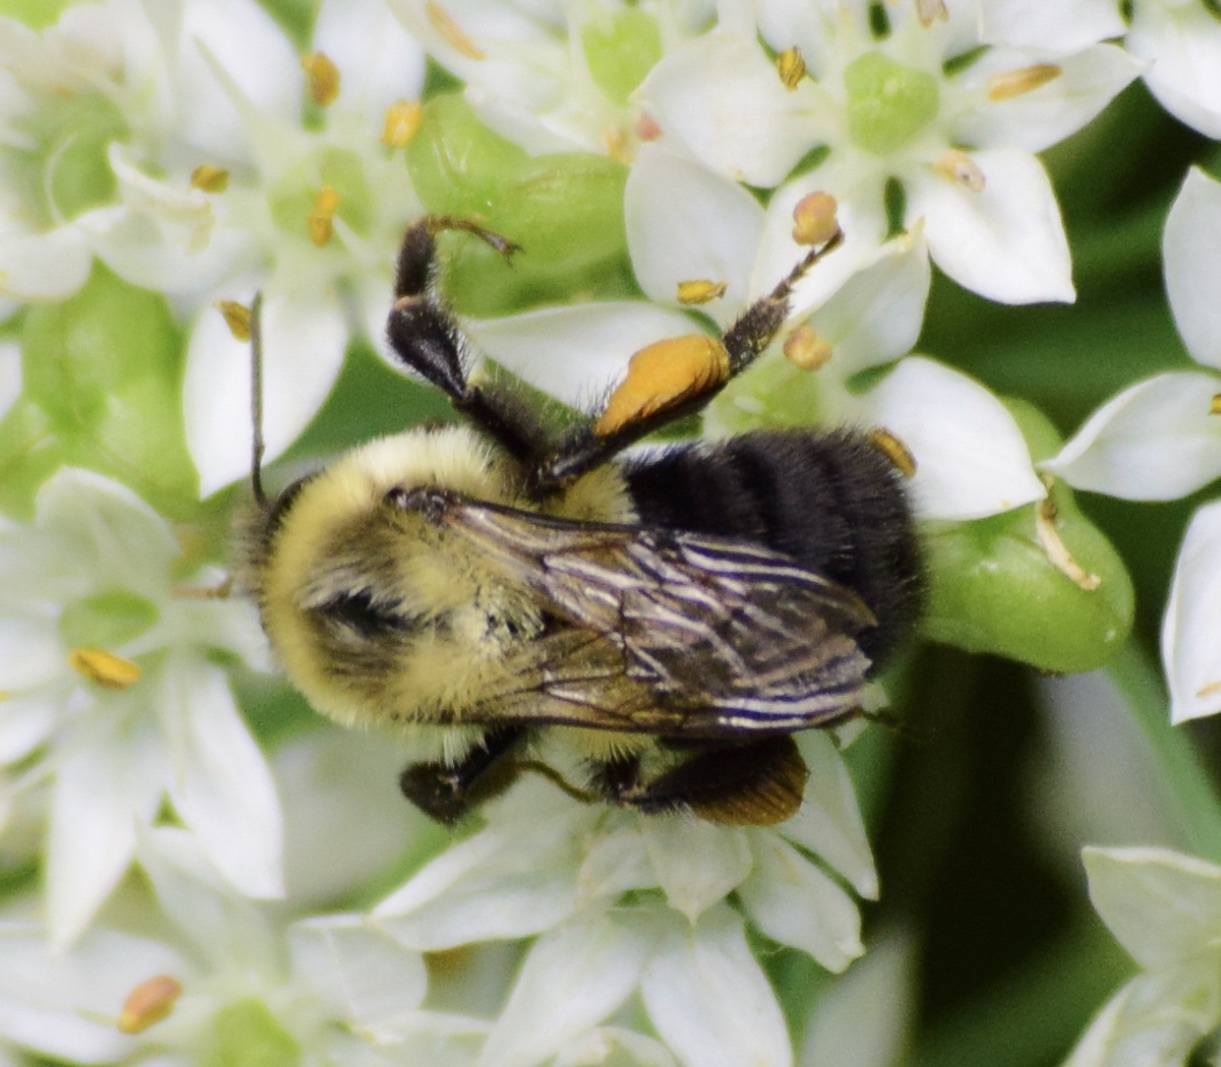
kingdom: Animalia
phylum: Arthropoda
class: Insecta
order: Hymenoptera
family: Apidae
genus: Bombus
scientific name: Bombus impatiens
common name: Common eastern bumble bee
